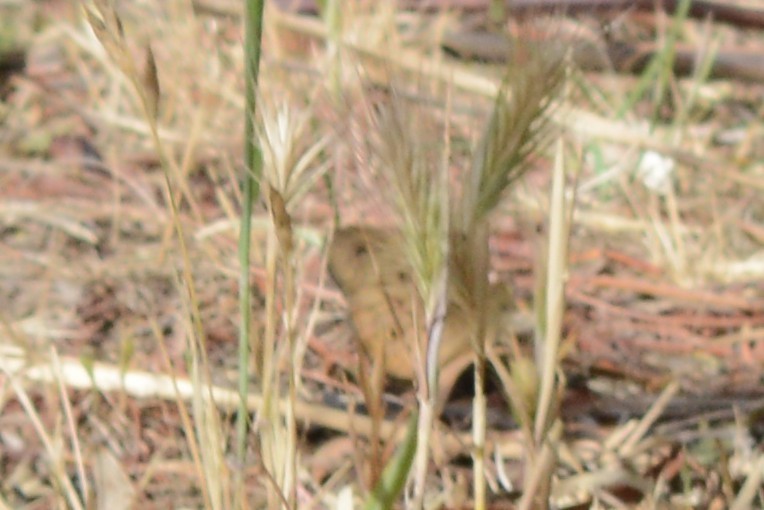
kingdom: Animalia
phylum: Arthropoda
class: Insecta
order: Lepidoptera
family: Nymphalidae
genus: Heteronympha
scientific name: Heteronympha merope
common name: Common brown
